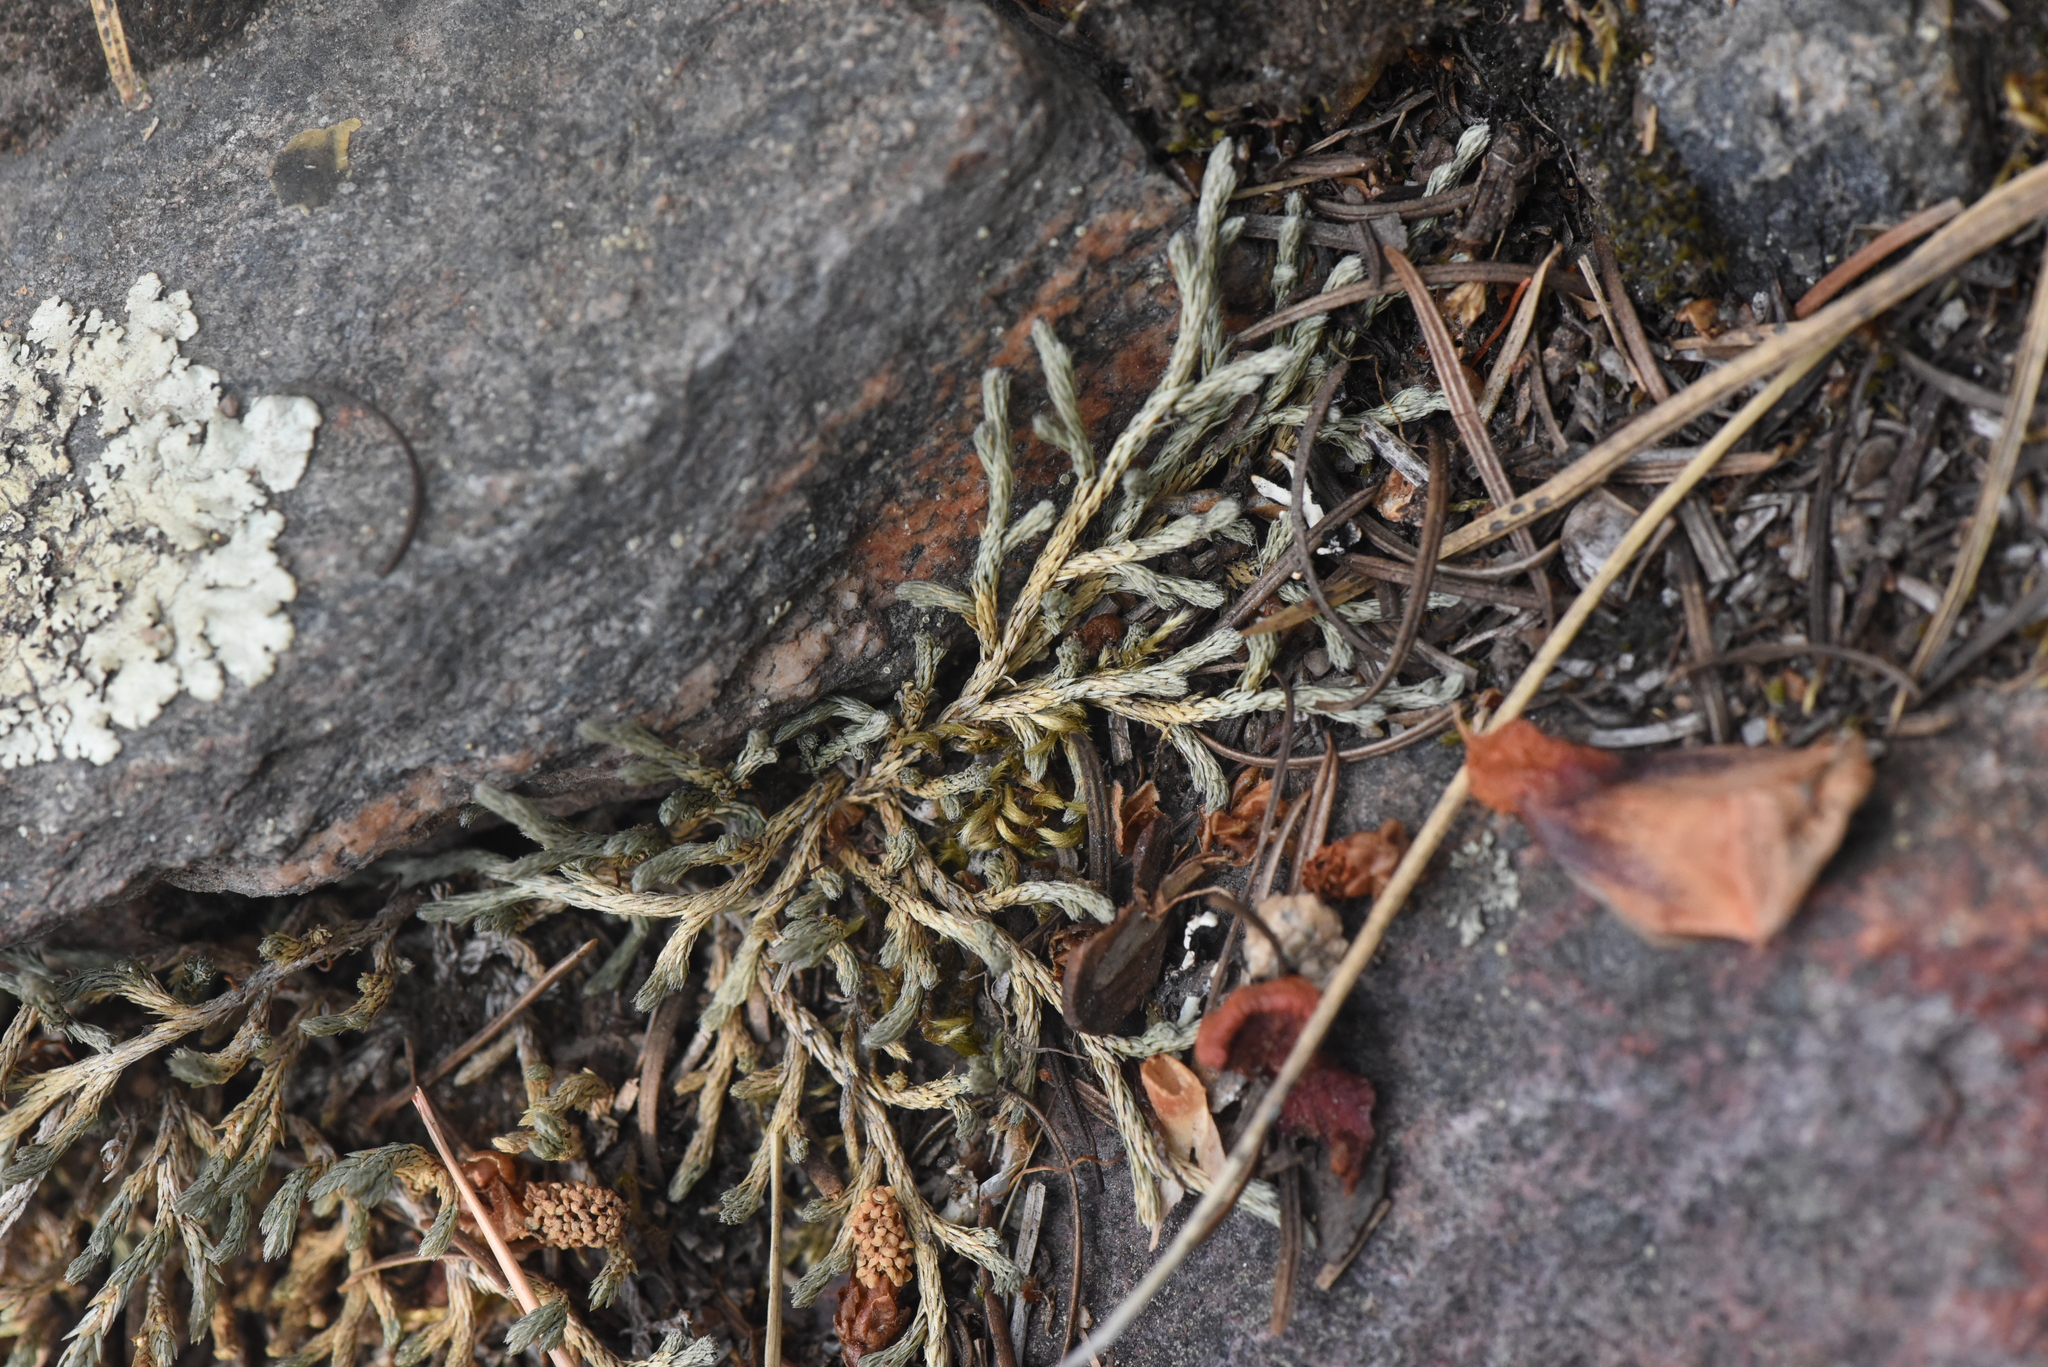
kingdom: Plantae
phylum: Tracheophyta
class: Lycopodiopsida
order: Selaginellales
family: Selaginellaceae
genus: Selaginella
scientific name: Selaginella wallacei
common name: Wallace's selaginella
